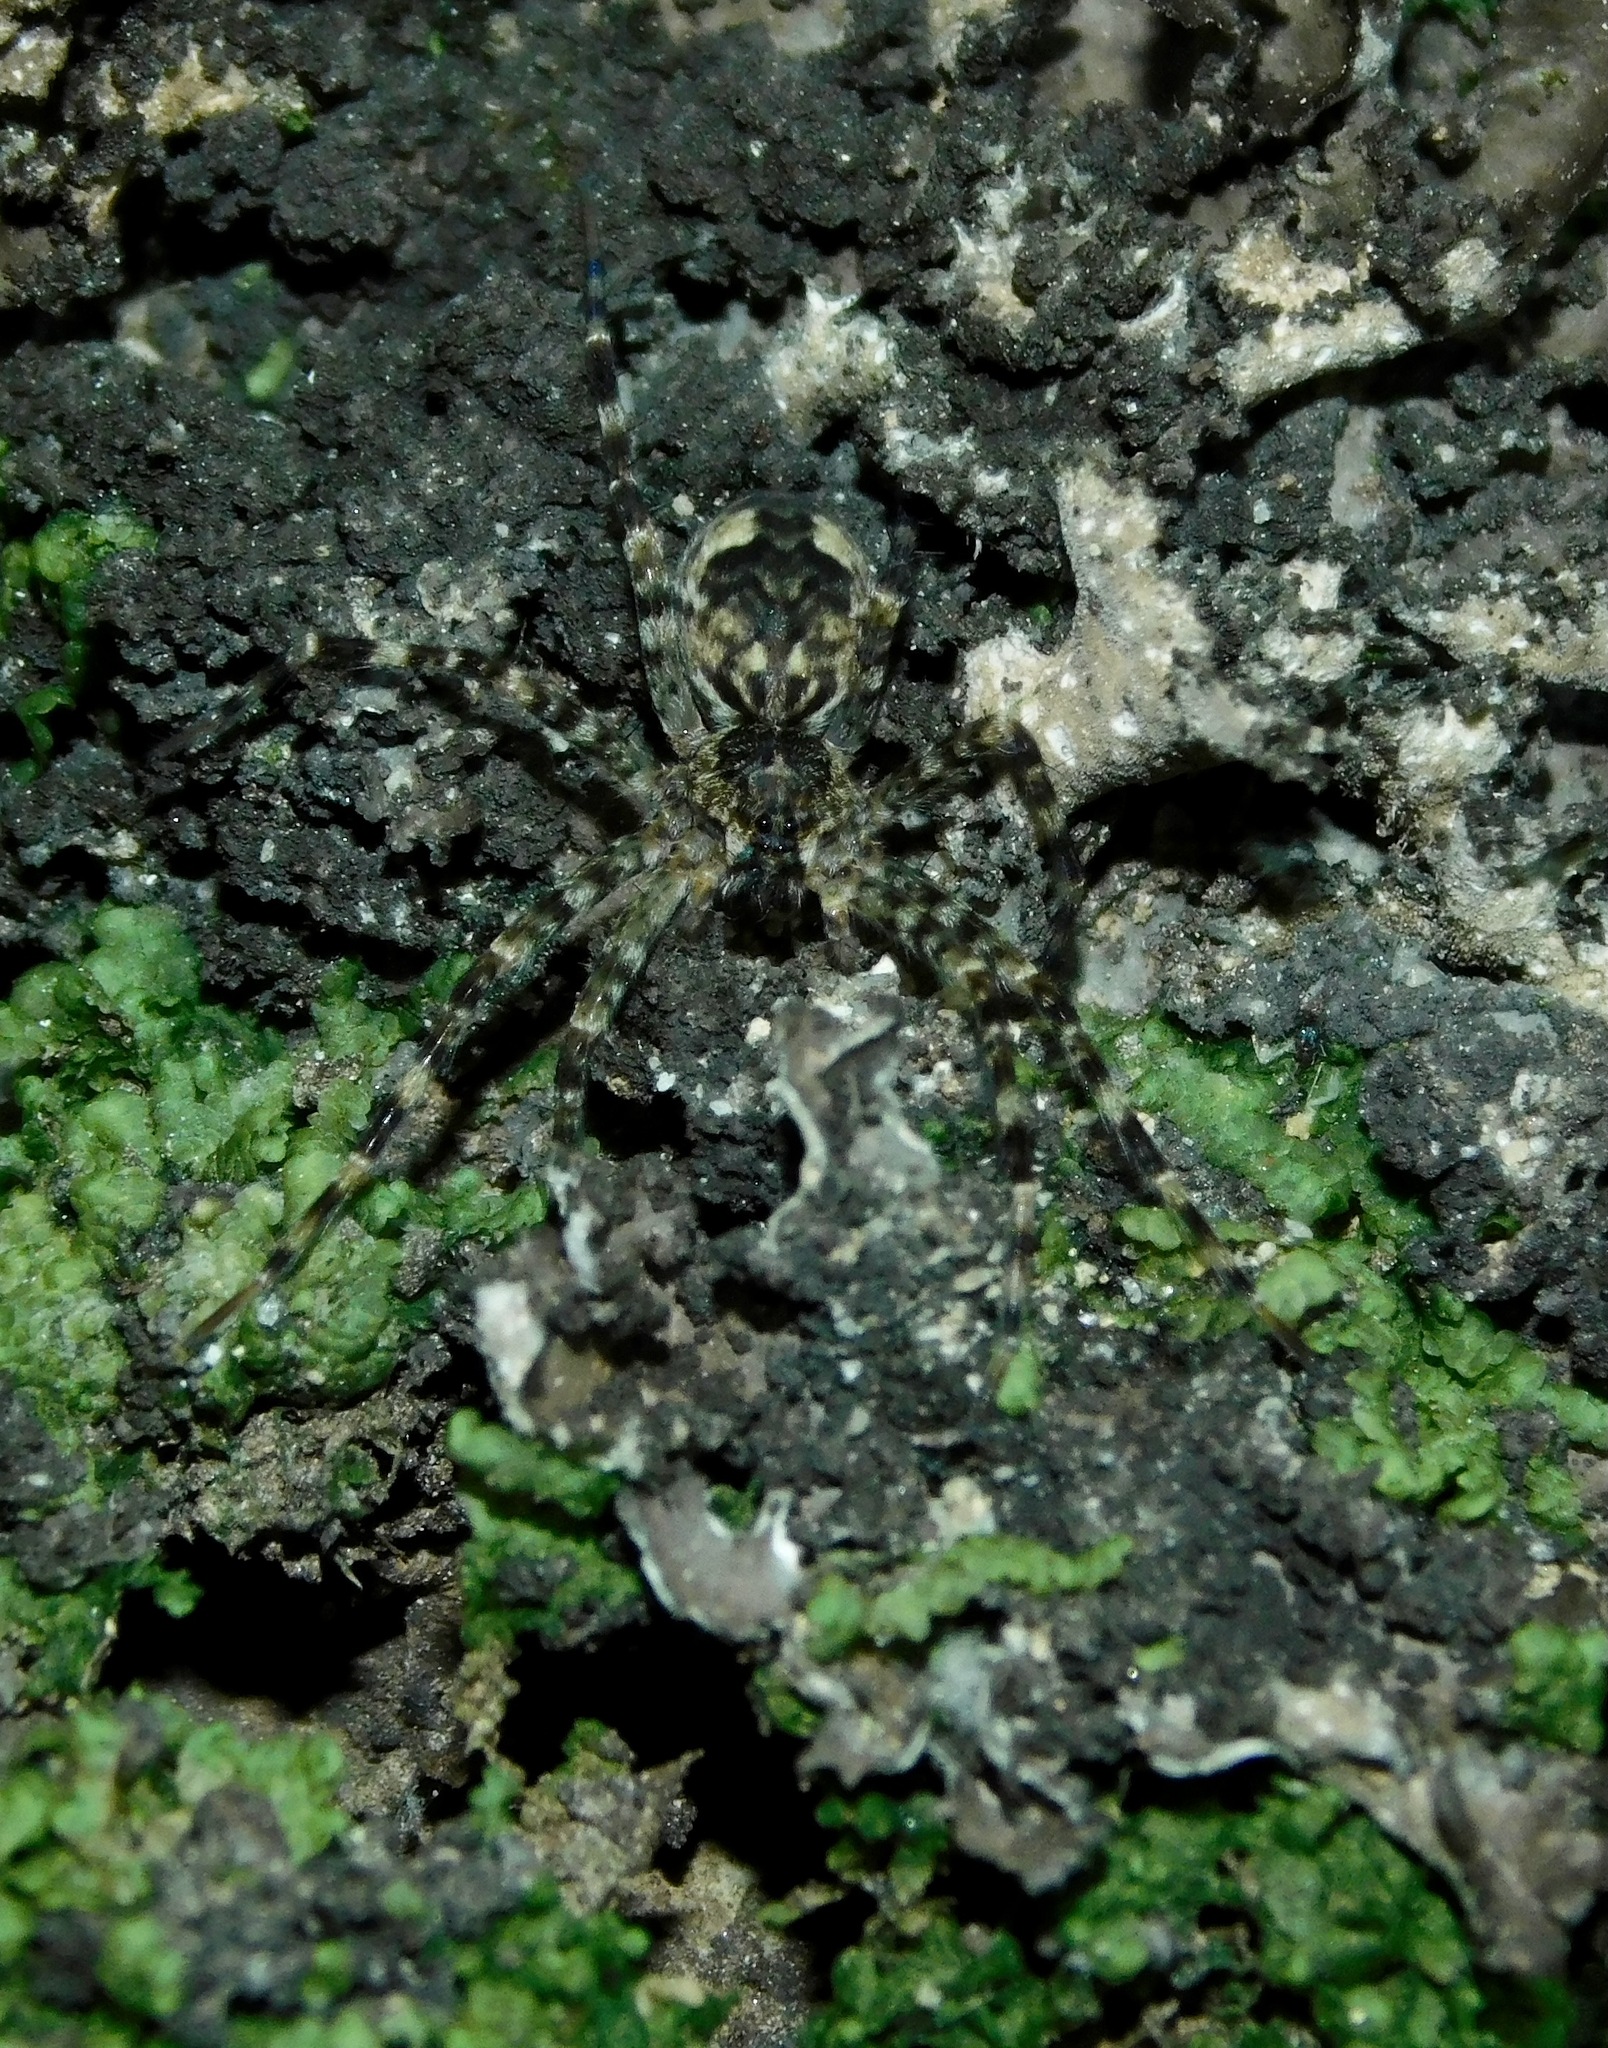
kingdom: Animalia
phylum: Arthropoda
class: Arachnida
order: Araneae
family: Pisauridae
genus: Dolomedes
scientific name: Dolomedes tenebrosus
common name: Dark fishing spider
